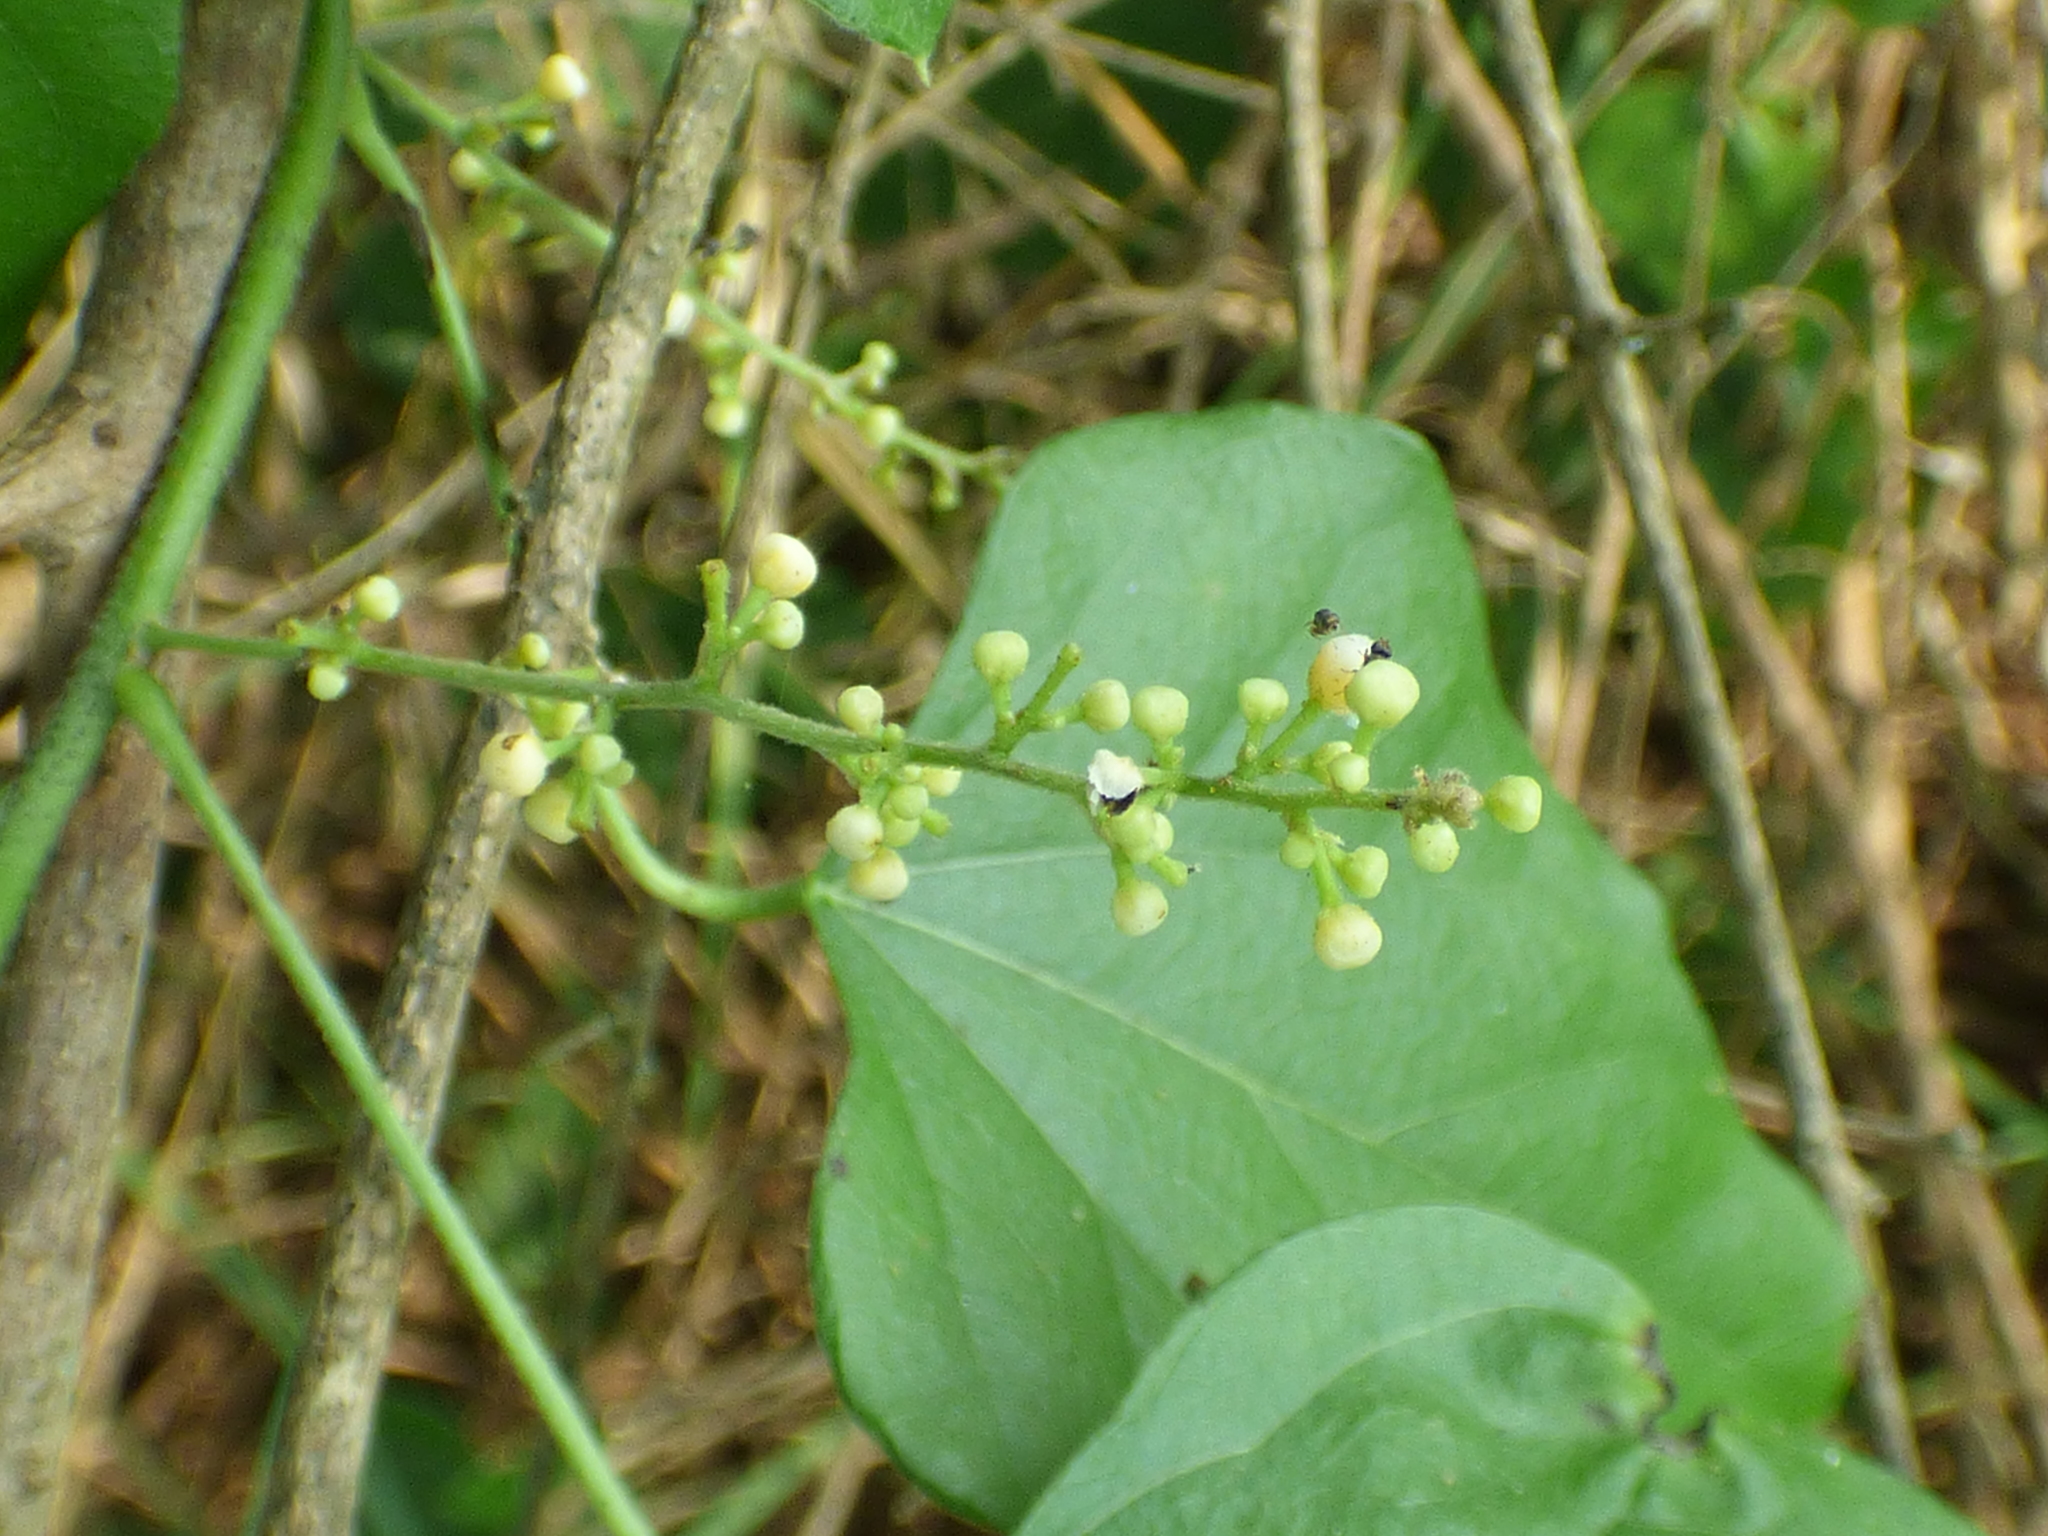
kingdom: Plantae
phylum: Tracheophyta
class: Magnoliopsida
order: Ranunculales
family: Menispermaceae
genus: Cocculus
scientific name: Cocculus carolinus
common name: Carolina moonseed
